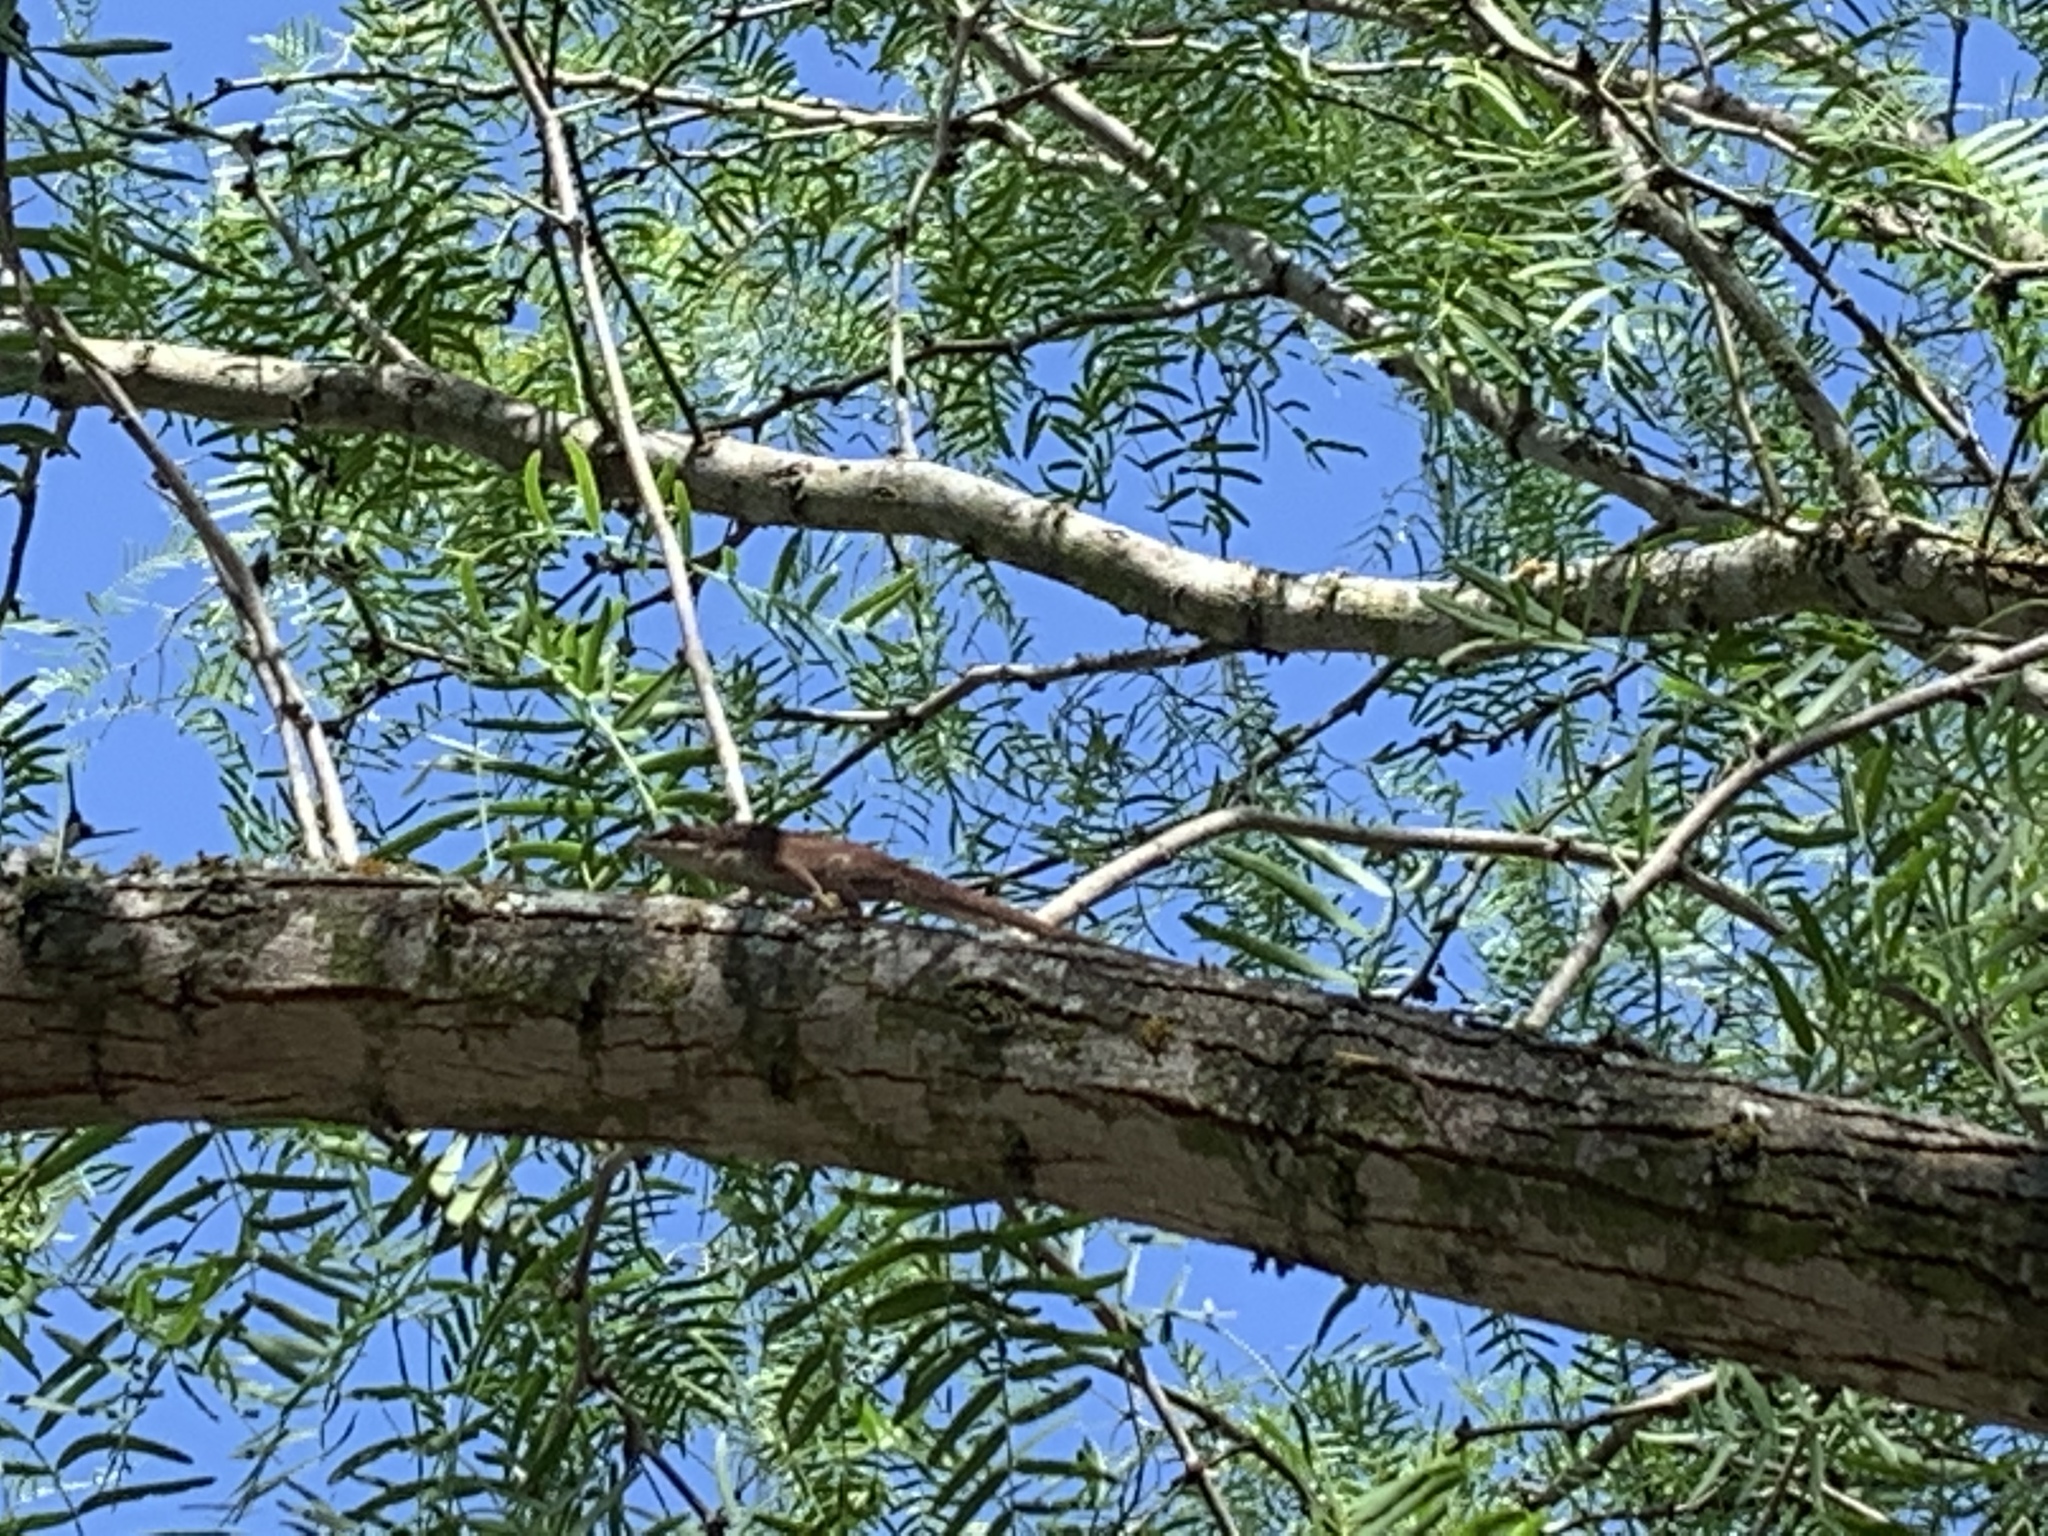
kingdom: Animalia
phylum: Chordata
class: Squamata
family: Dactyloidae
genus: Anolis
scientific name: Anolis carolinensis
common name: Green anole
